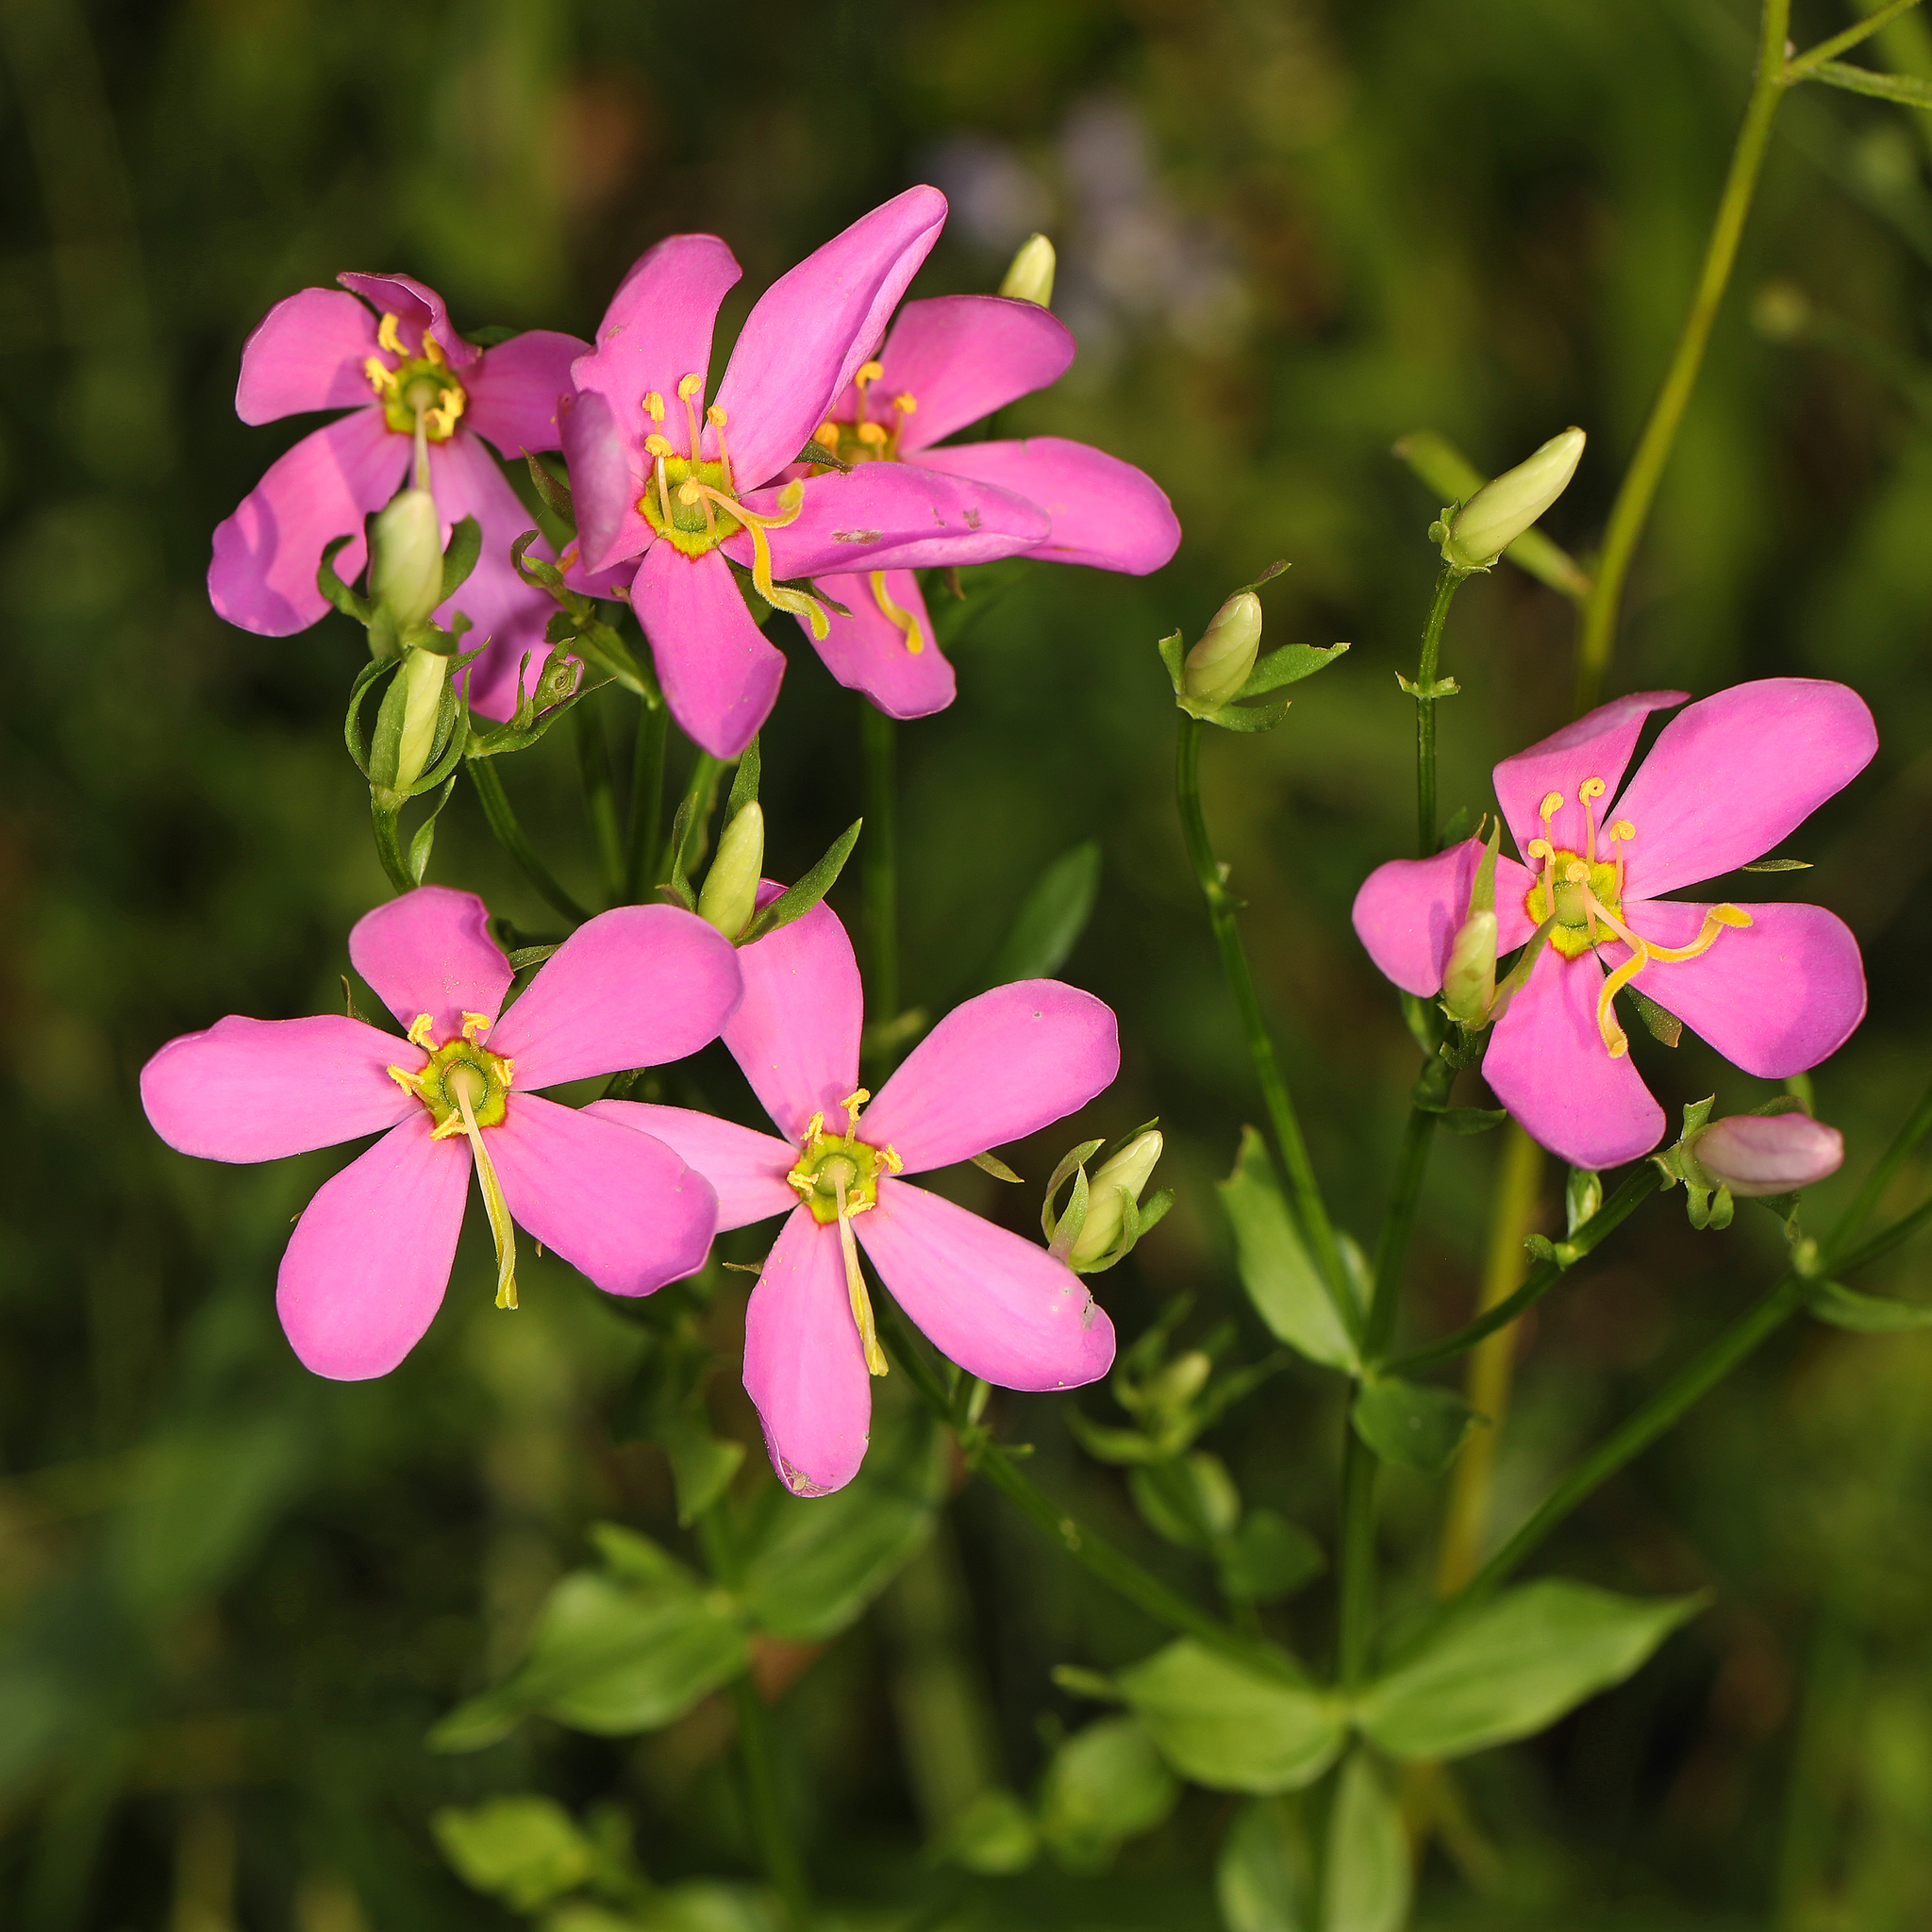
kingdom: Plantae
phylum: Tracheophyta
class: Magnoliopsida
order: Gentianales
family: Gentianaceae
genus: Sabatia
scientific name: Sabatia angularis
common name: Rose-pink
